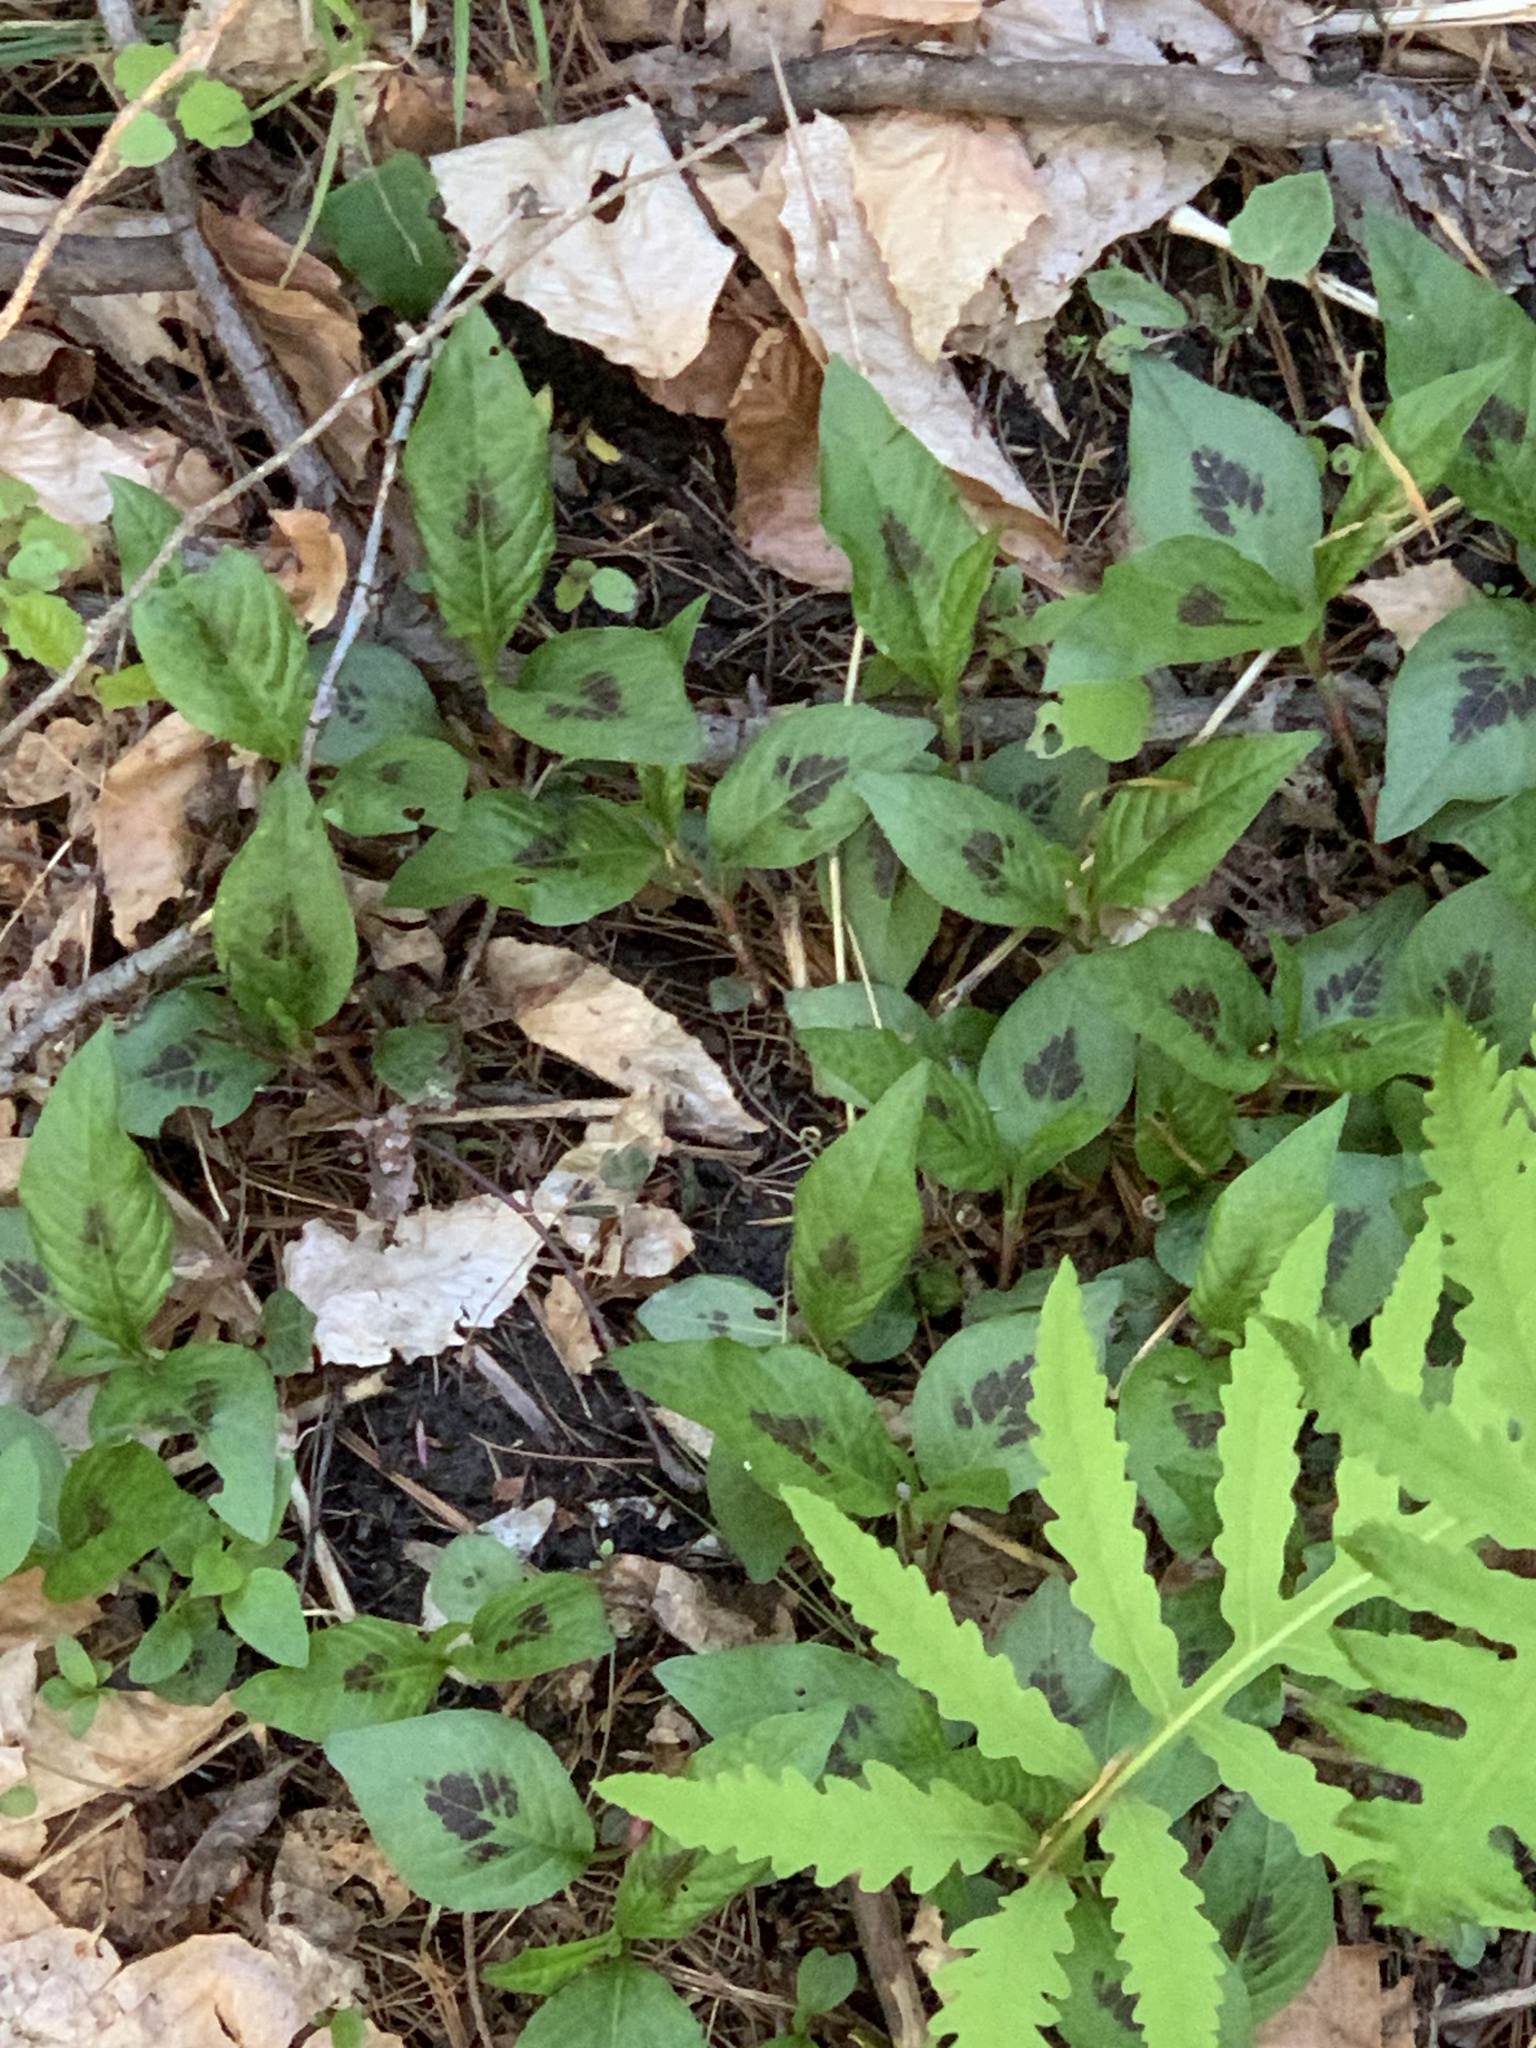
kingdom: Plantae
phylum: Tracheophyta
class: Magnoliopsida
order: Caryophyllales
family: Polygonaceae
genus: Persicaria
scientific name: Persicaria virginiana
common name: Jumpseed
